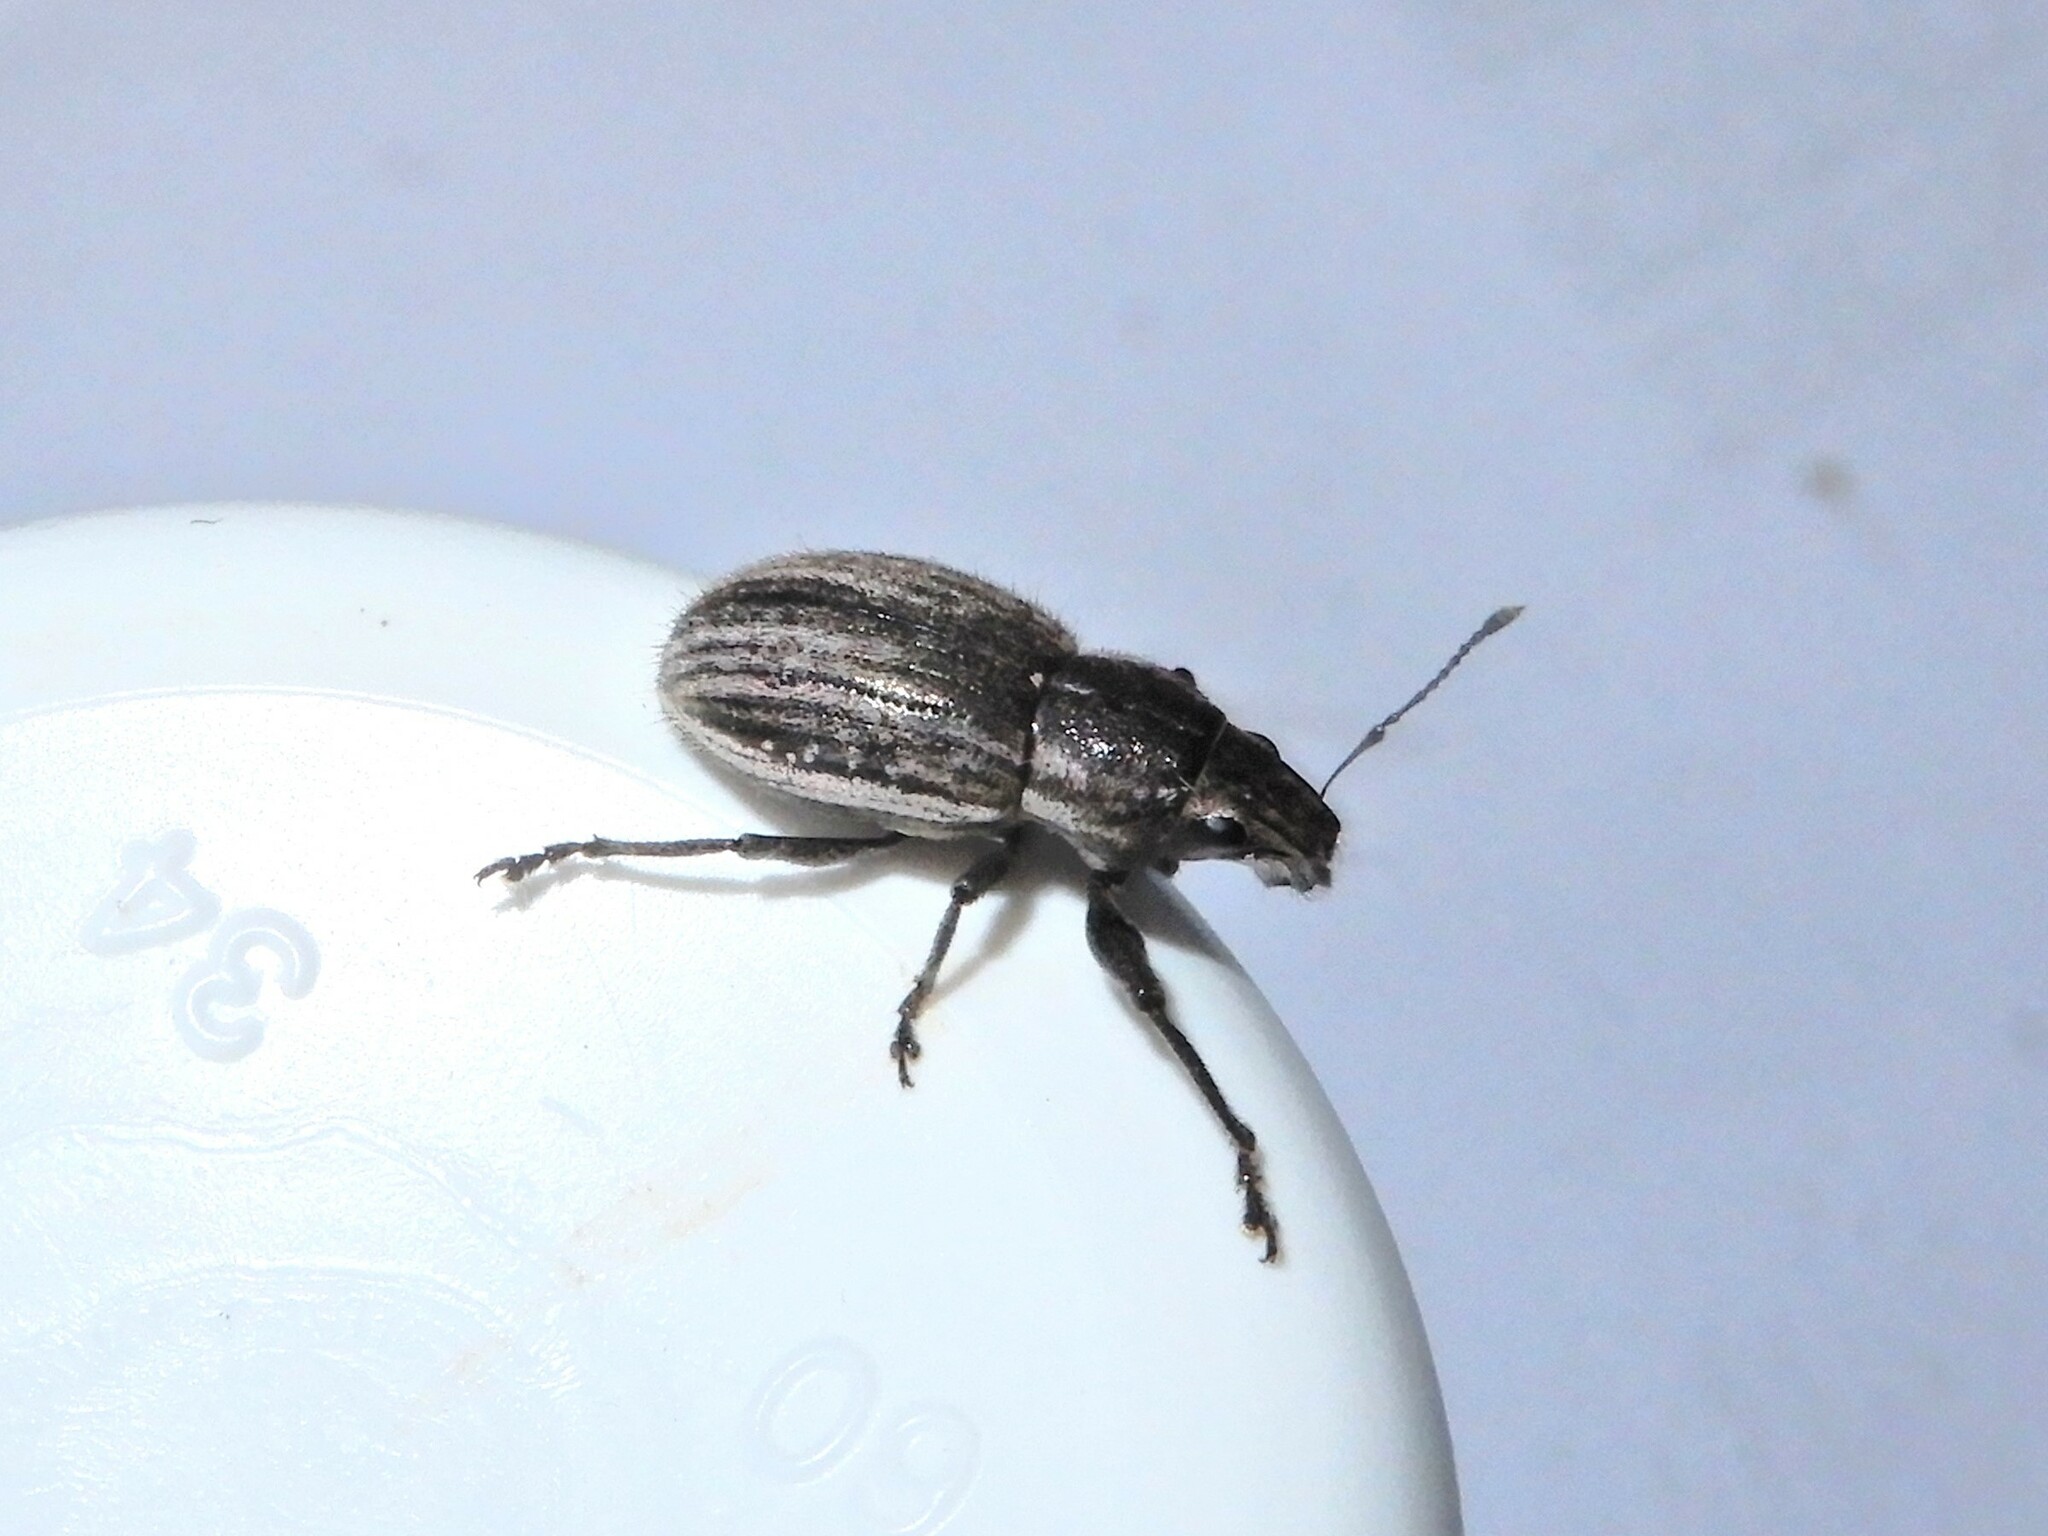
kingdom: Animalia
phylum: Arthropoda
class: Insecta
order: Coleoptera
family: Curculionidae
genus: Naupactus
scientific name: Naupactus leucoloma
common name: Whitefringed beetle
